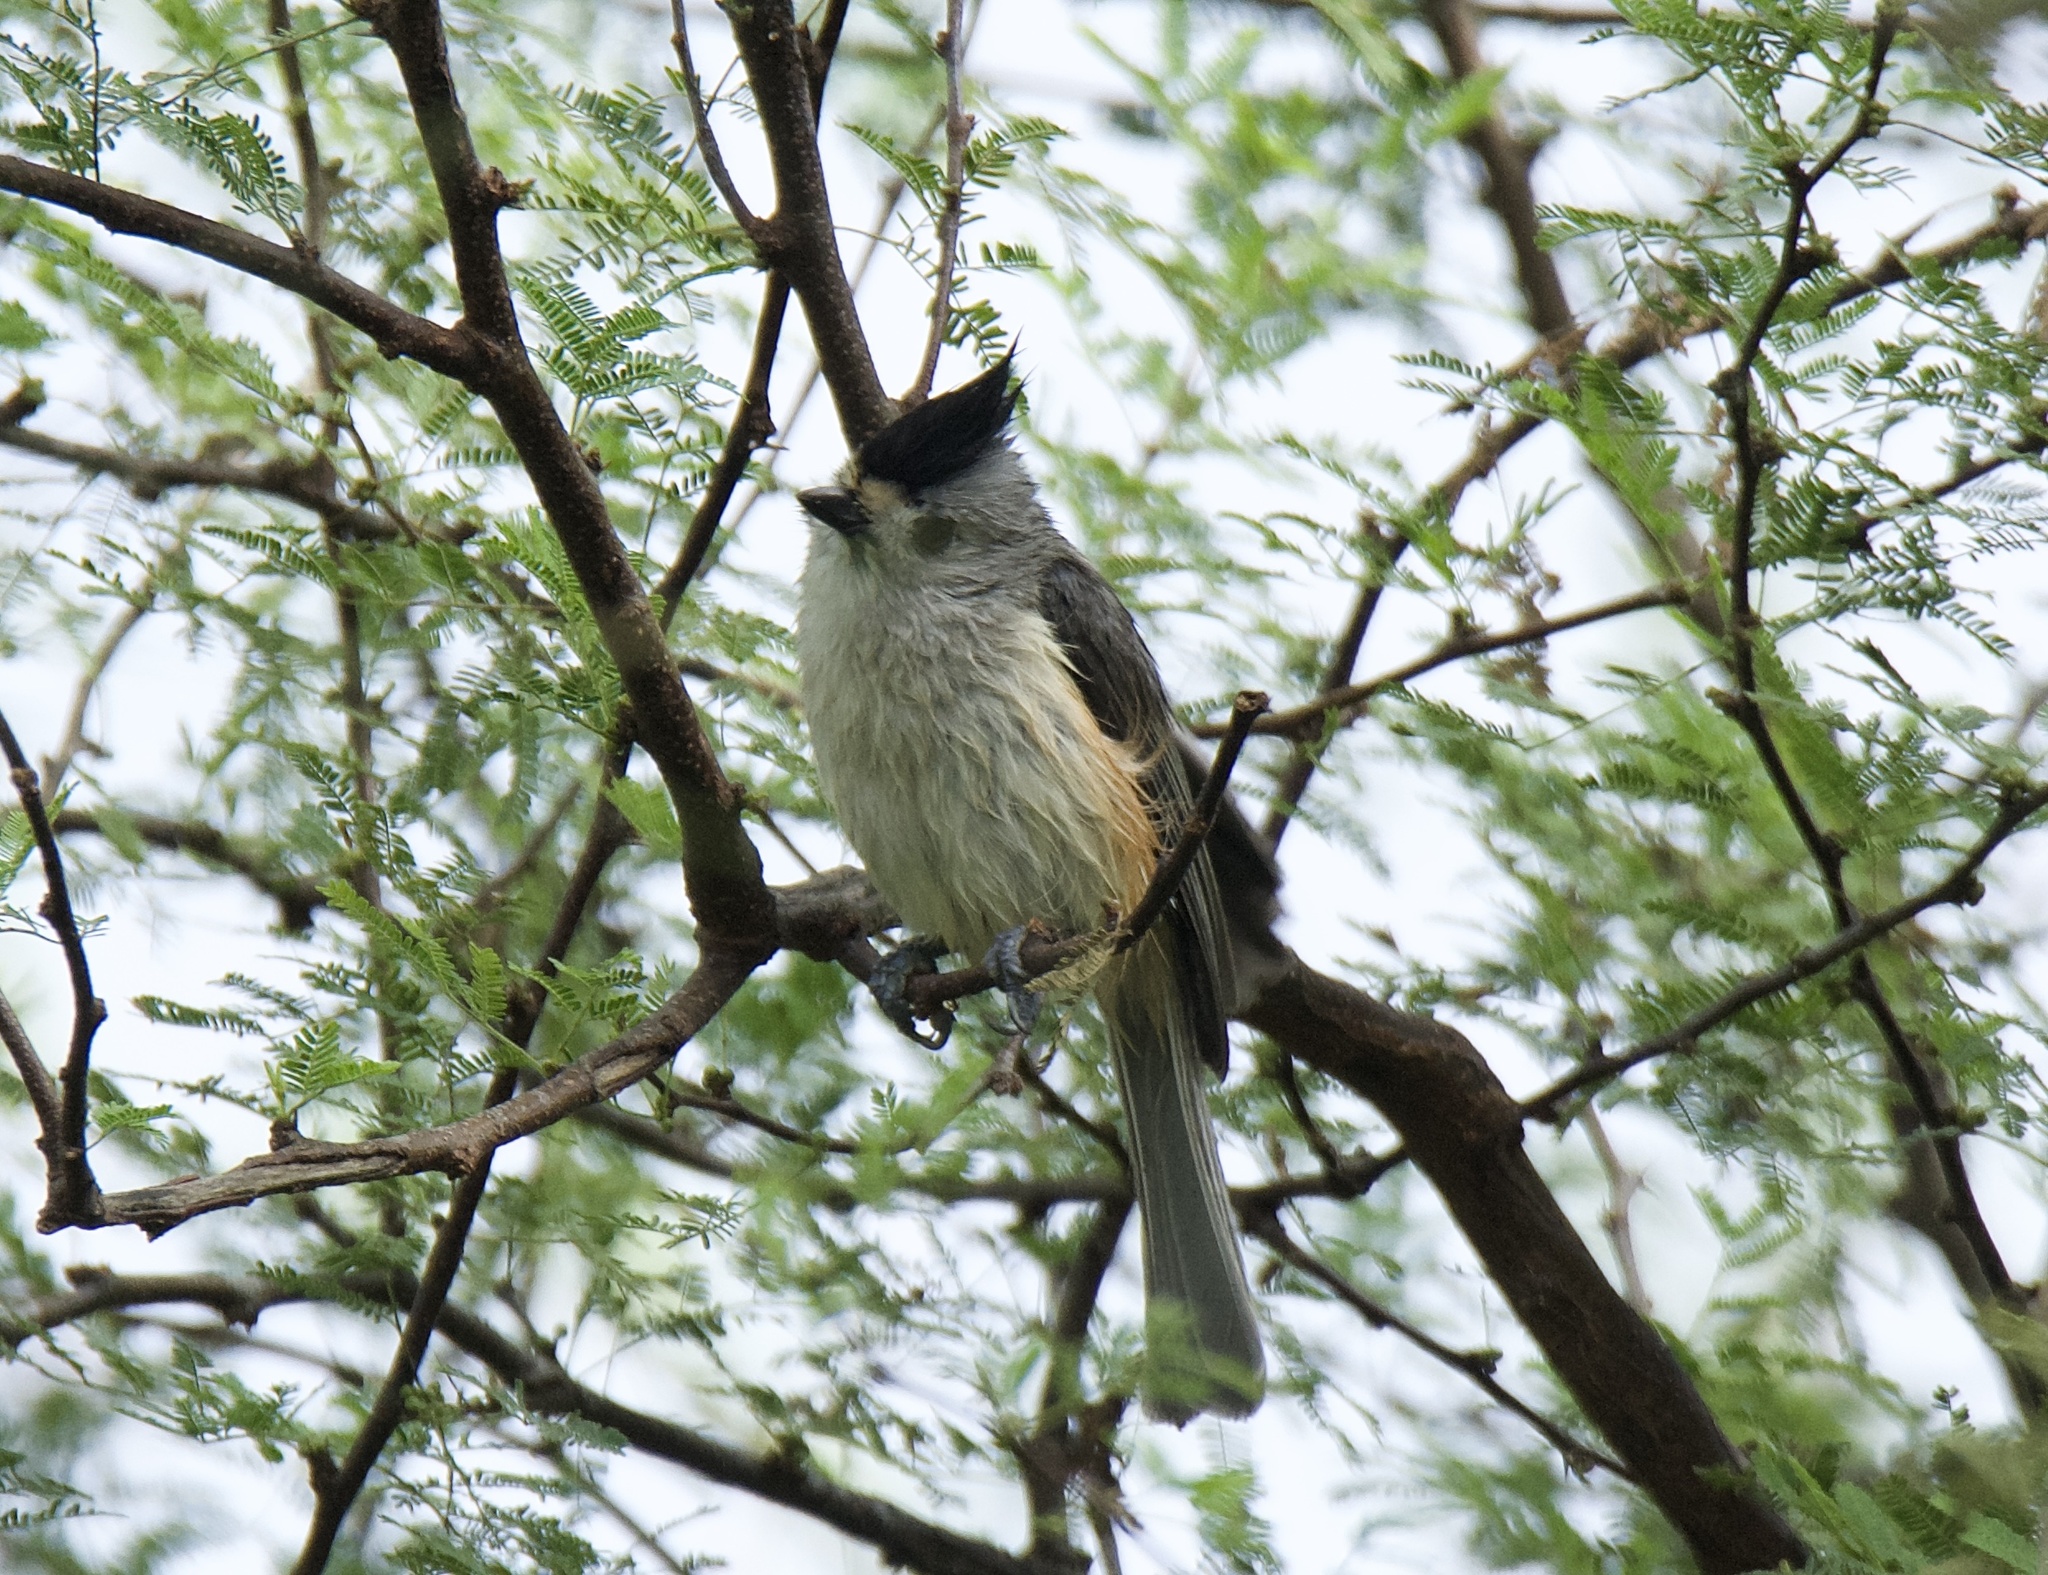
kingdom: Animalia
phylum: Chordata
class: Aves
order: Passeriformes
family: Paridae
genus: Baeolophus
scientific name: Baeolophus atricristatus
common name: Black-crested titmouse
